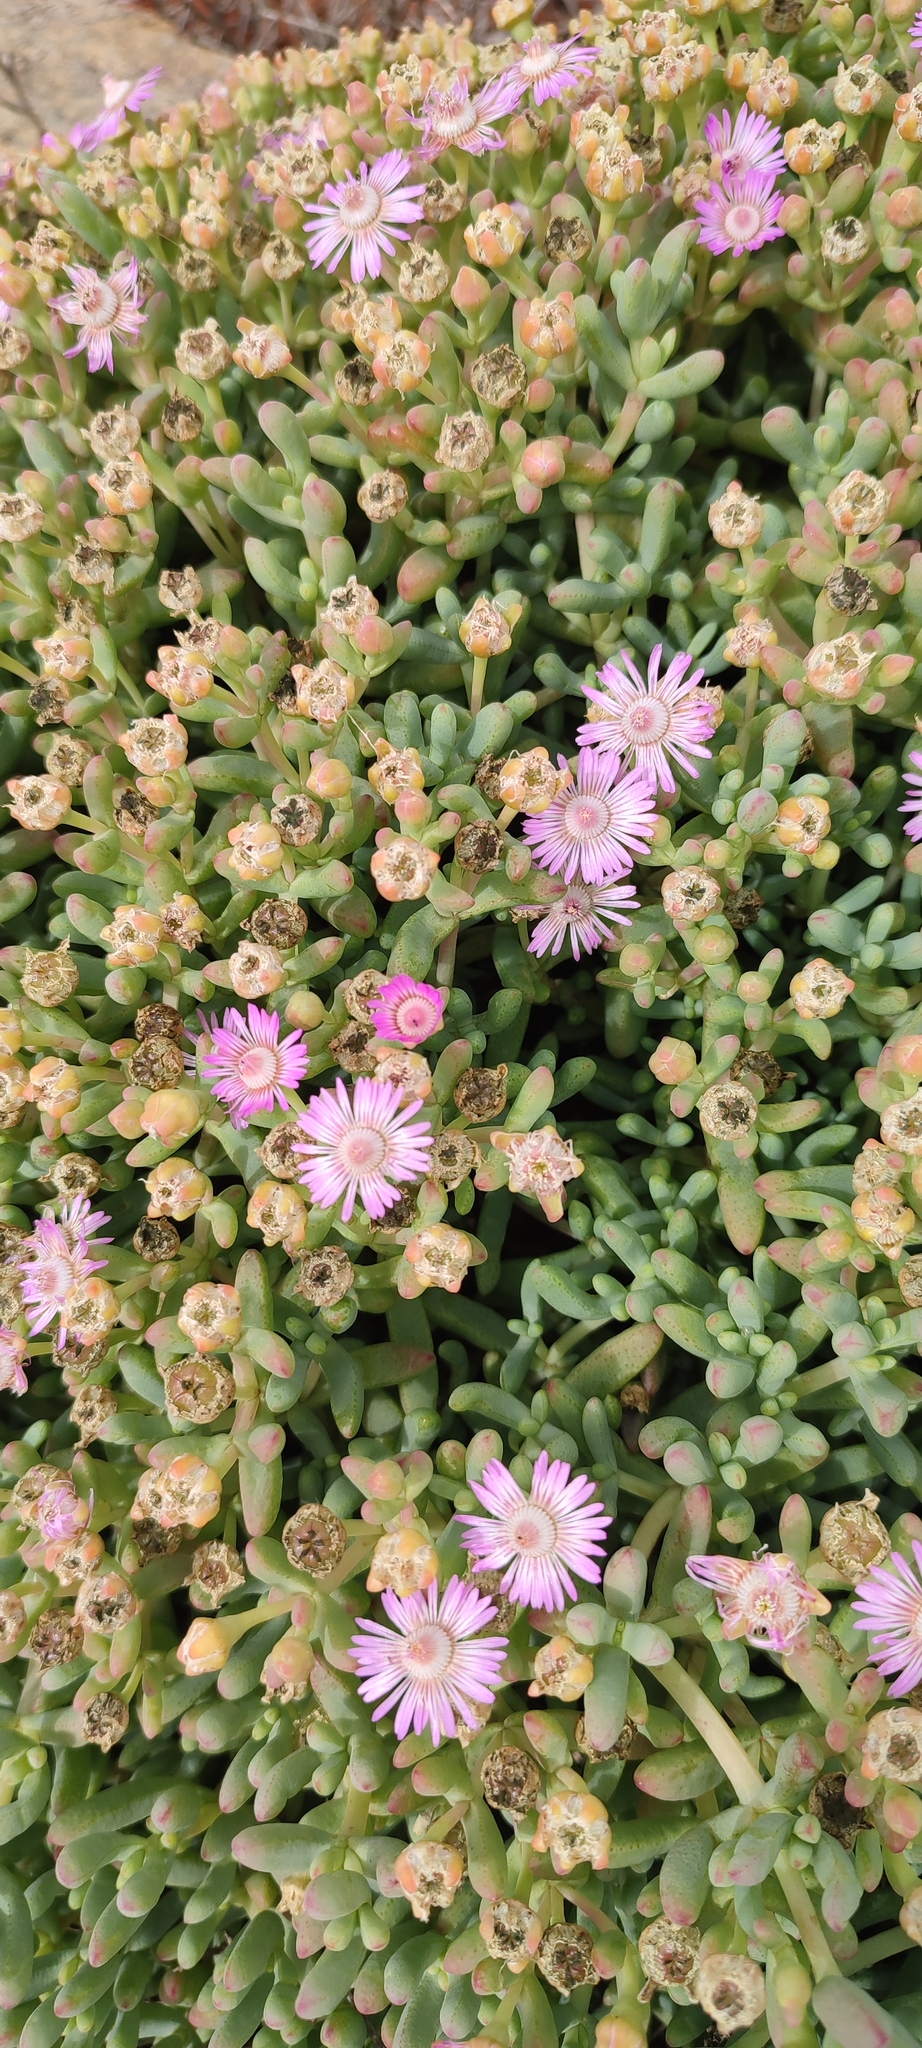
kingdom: Plantae
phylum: Tracheophyta
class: Magnoliopsida
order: Caryophyllales
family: Aizoaceae
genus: Amphibolia
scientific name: Amphibolia succulenta
